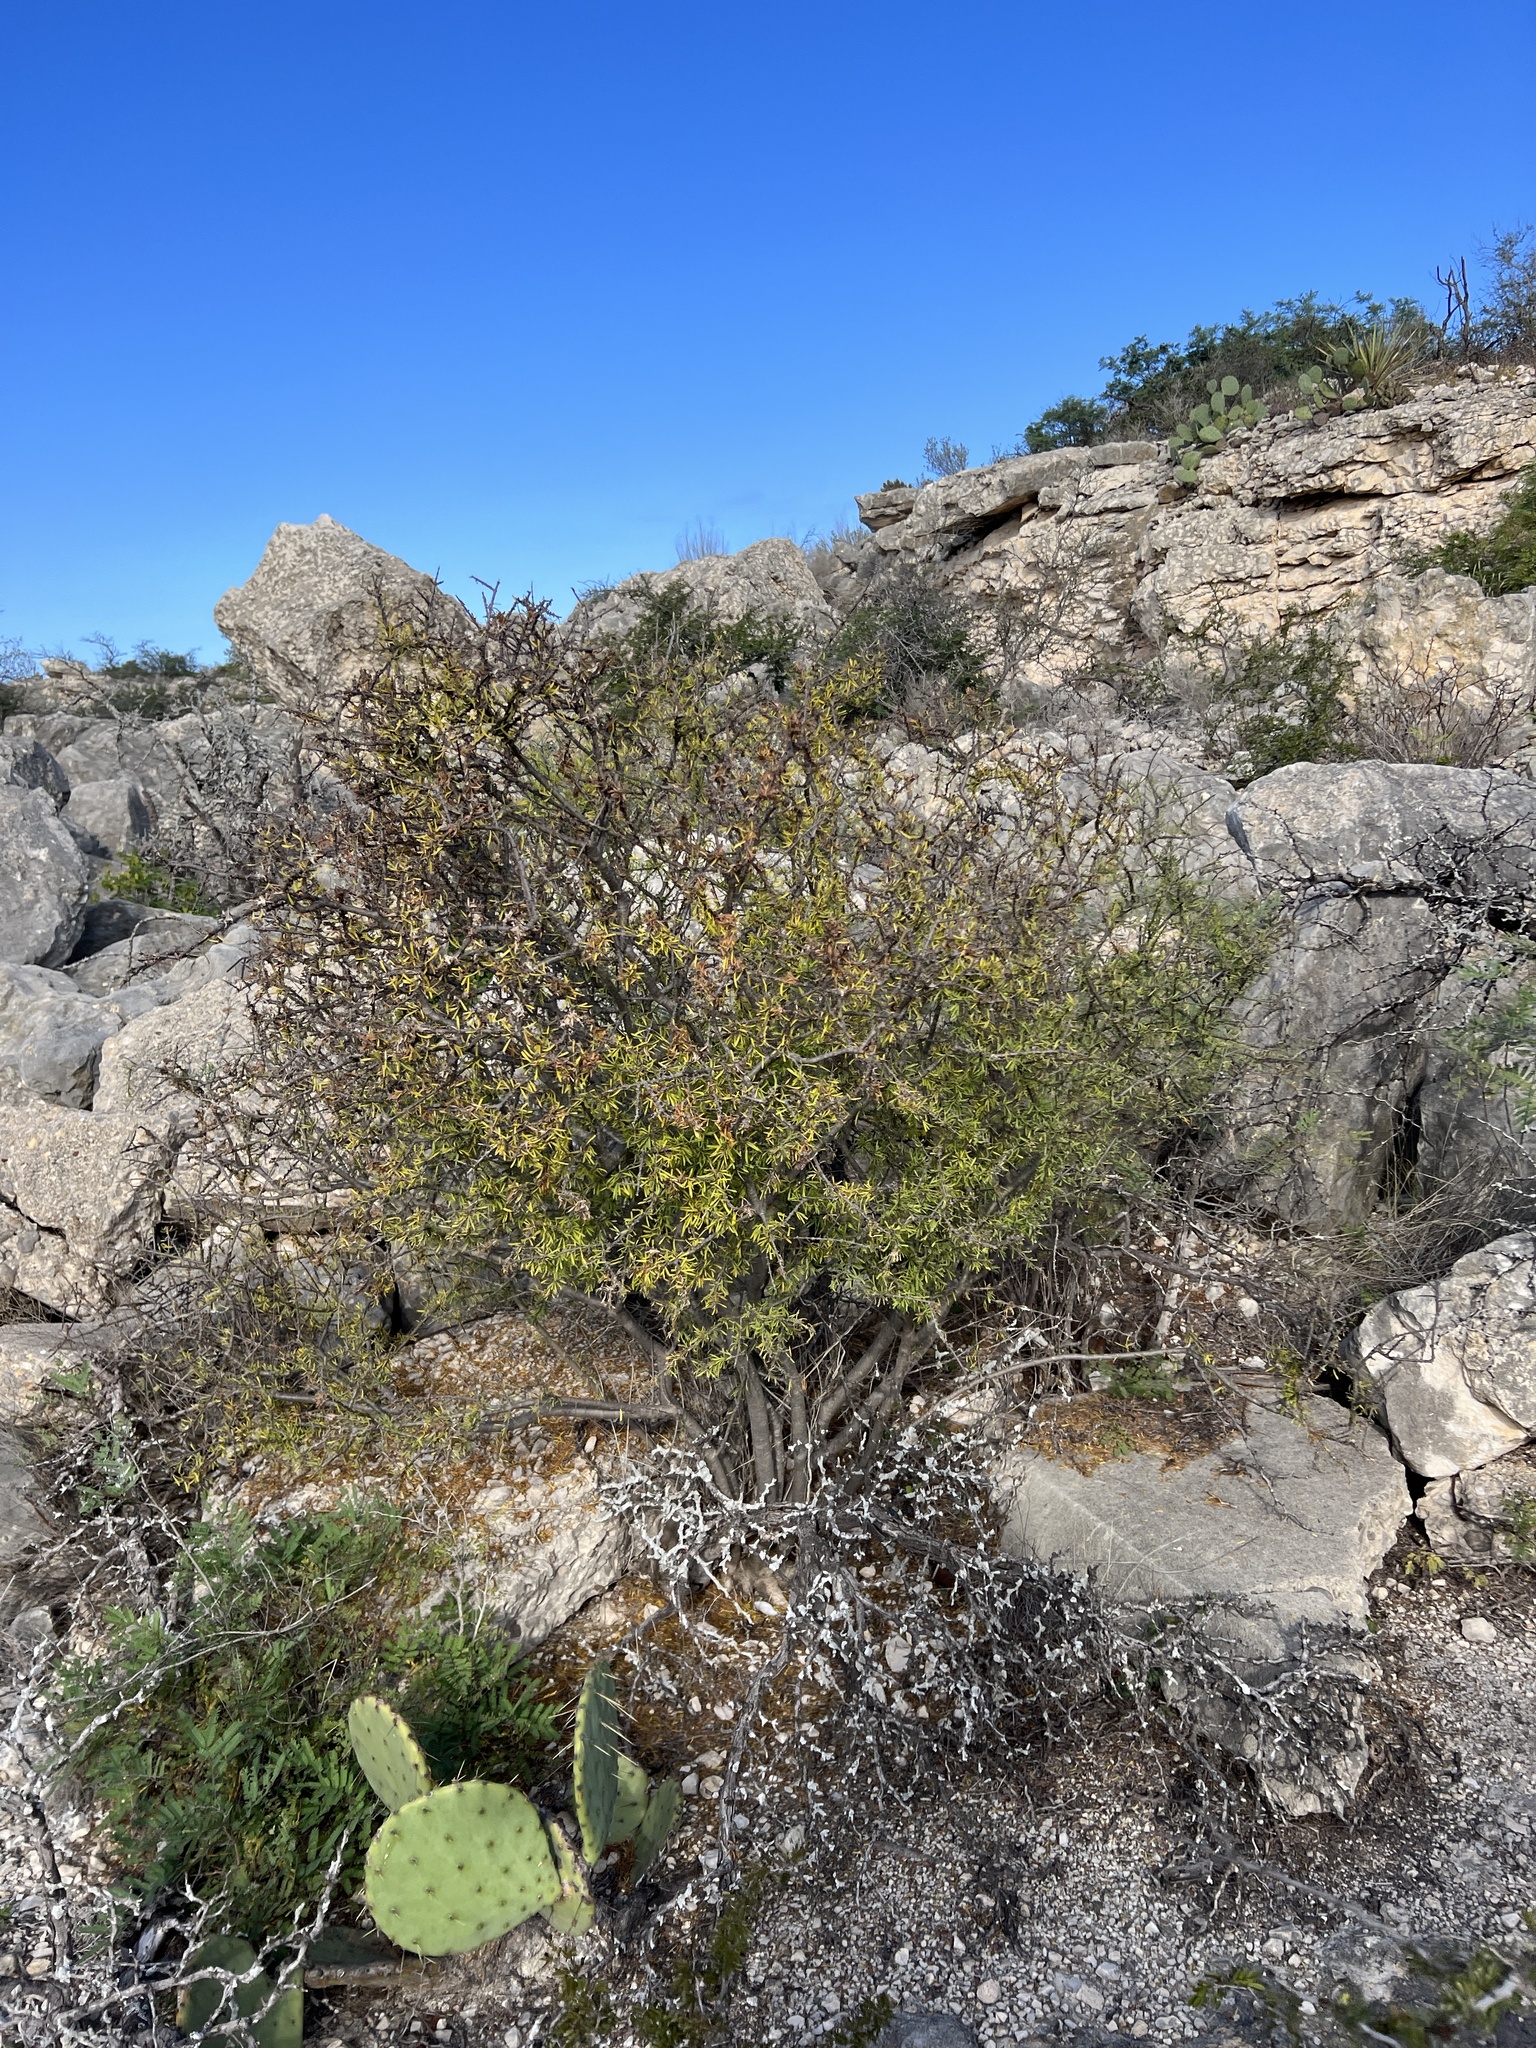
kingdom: Plantae
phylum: Tracheophyta
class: Magnoliopsida
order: Lamiales
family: Oleaceae
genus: Forestiera
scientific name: Forestiera angustifolia
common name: Elbowbush
